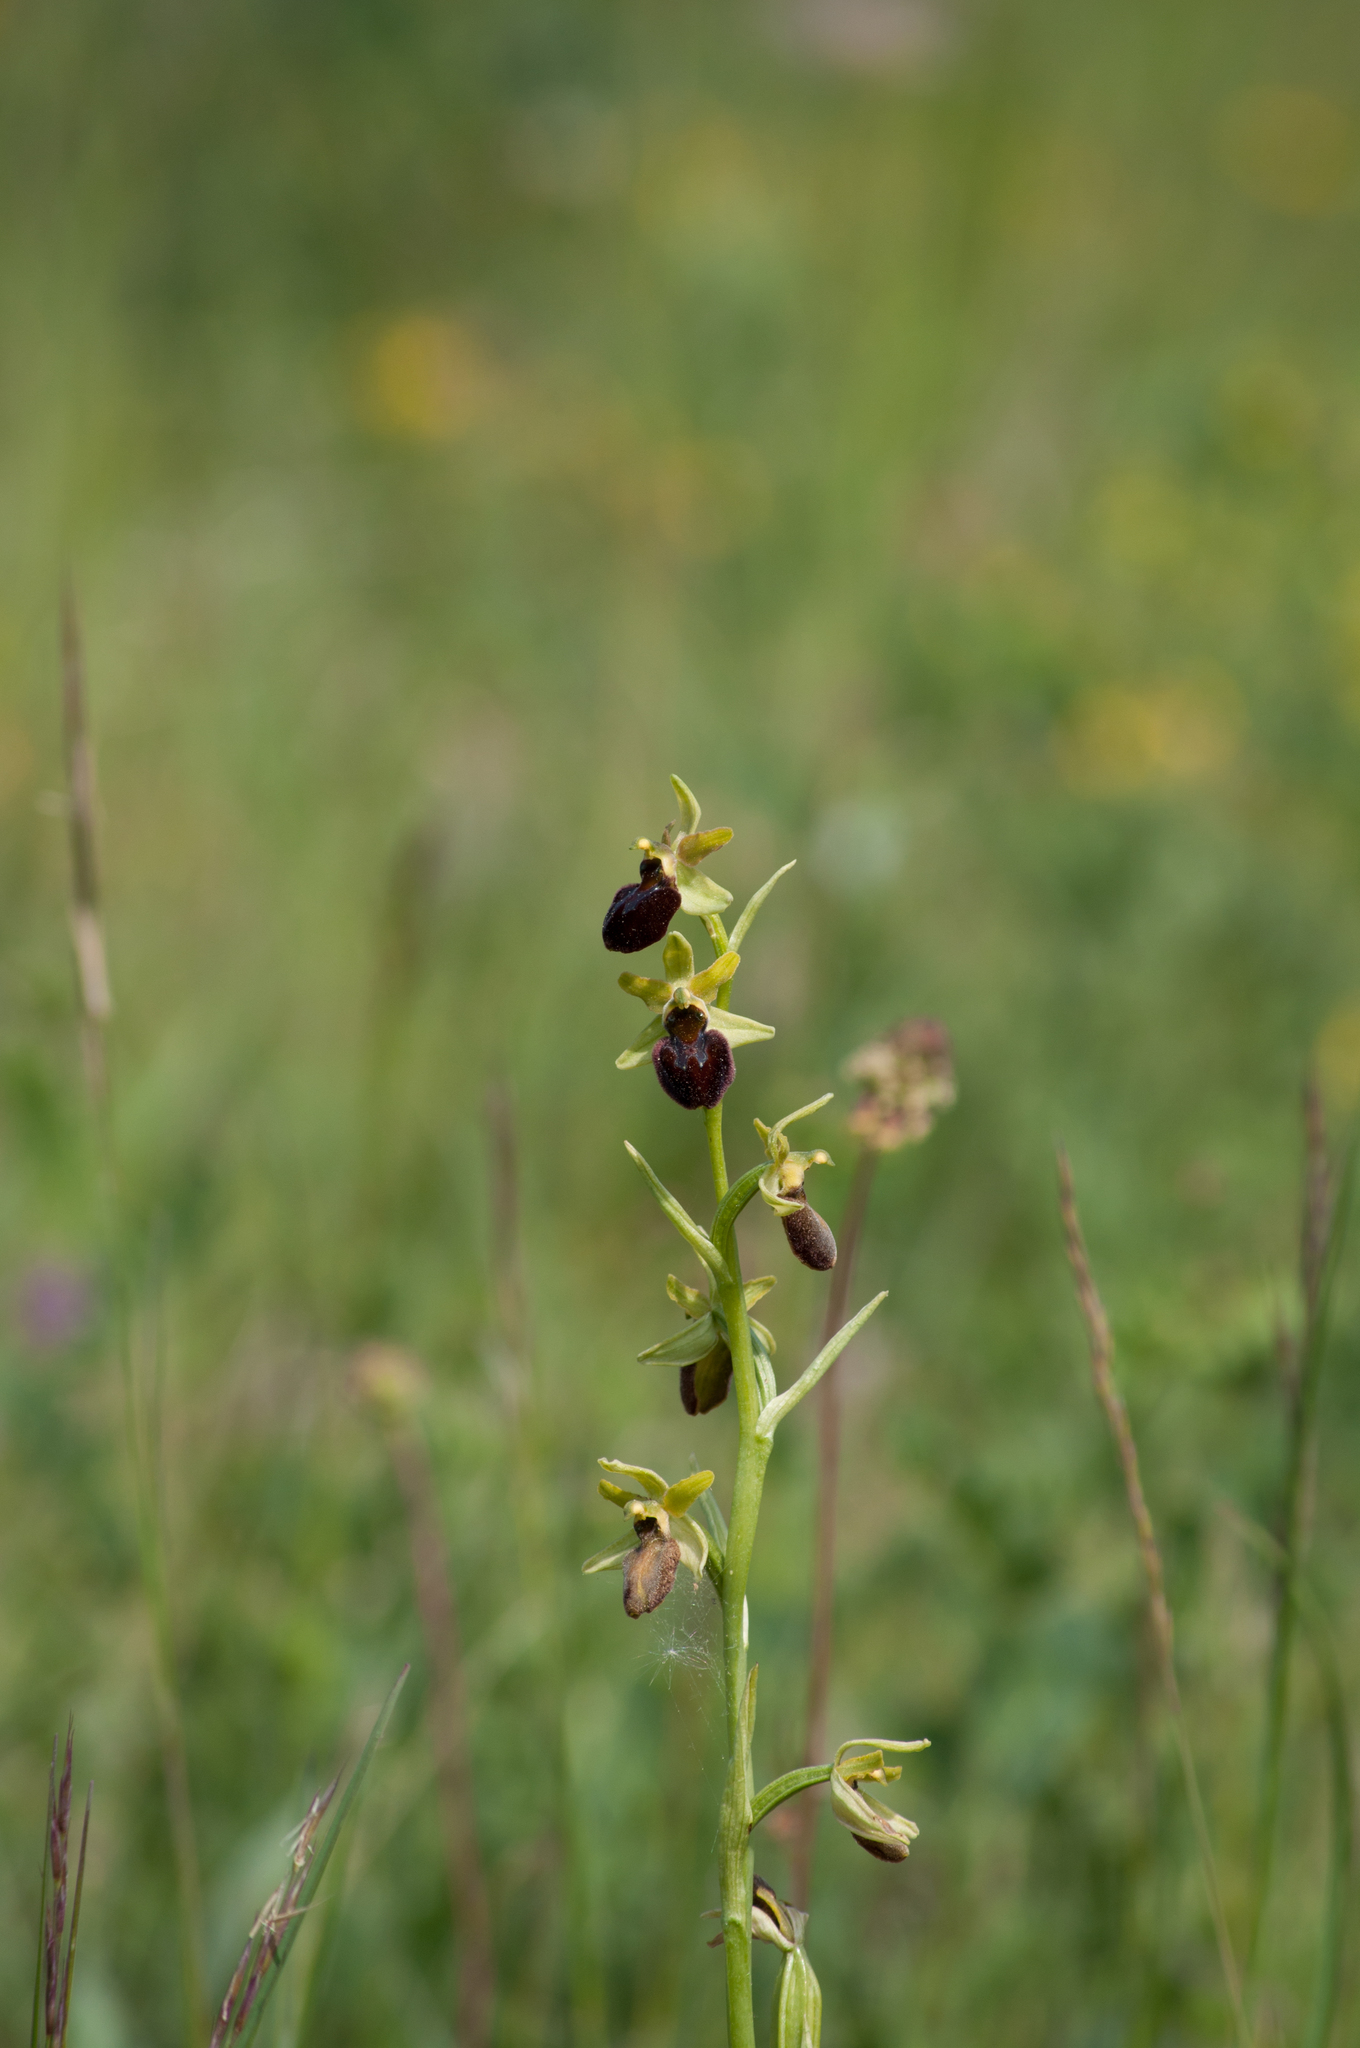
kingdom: Plantae
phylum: Tracheophyta
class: Liliopsida
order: Asparagales
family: Orchidaceae
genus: Ophrys
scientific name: Ophrys sphegodes
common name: Early spider-orchid
